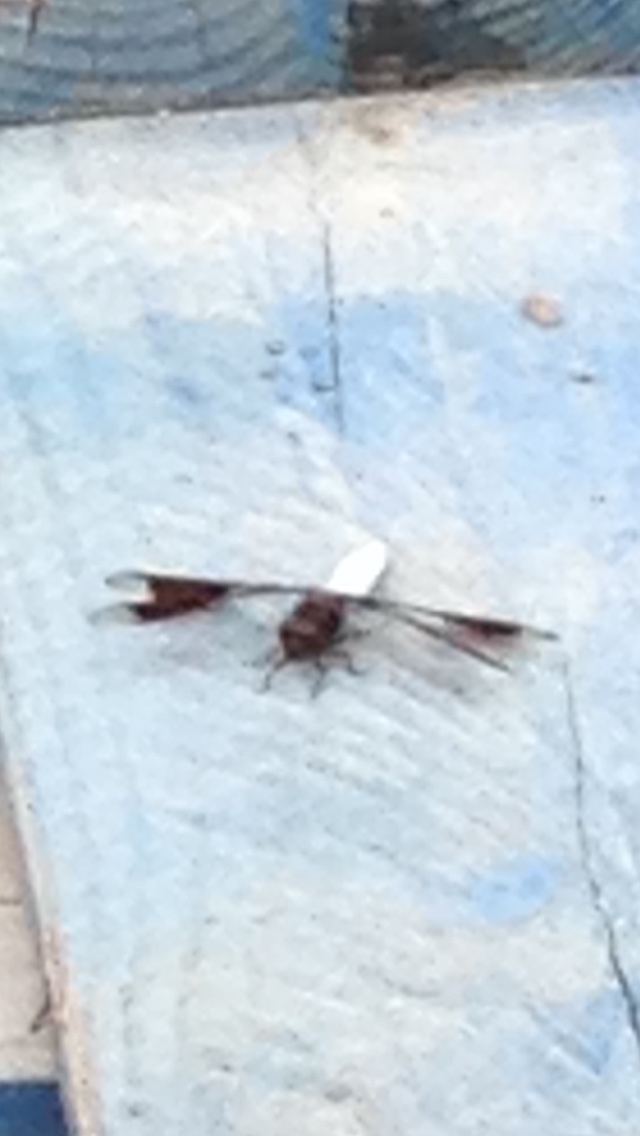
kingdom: Animalia
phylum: Arthropoda
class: Insecta
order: Odonata
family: Libellulidae
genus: Plathemis
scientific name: Plathemis lydia
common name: Common whitetail
